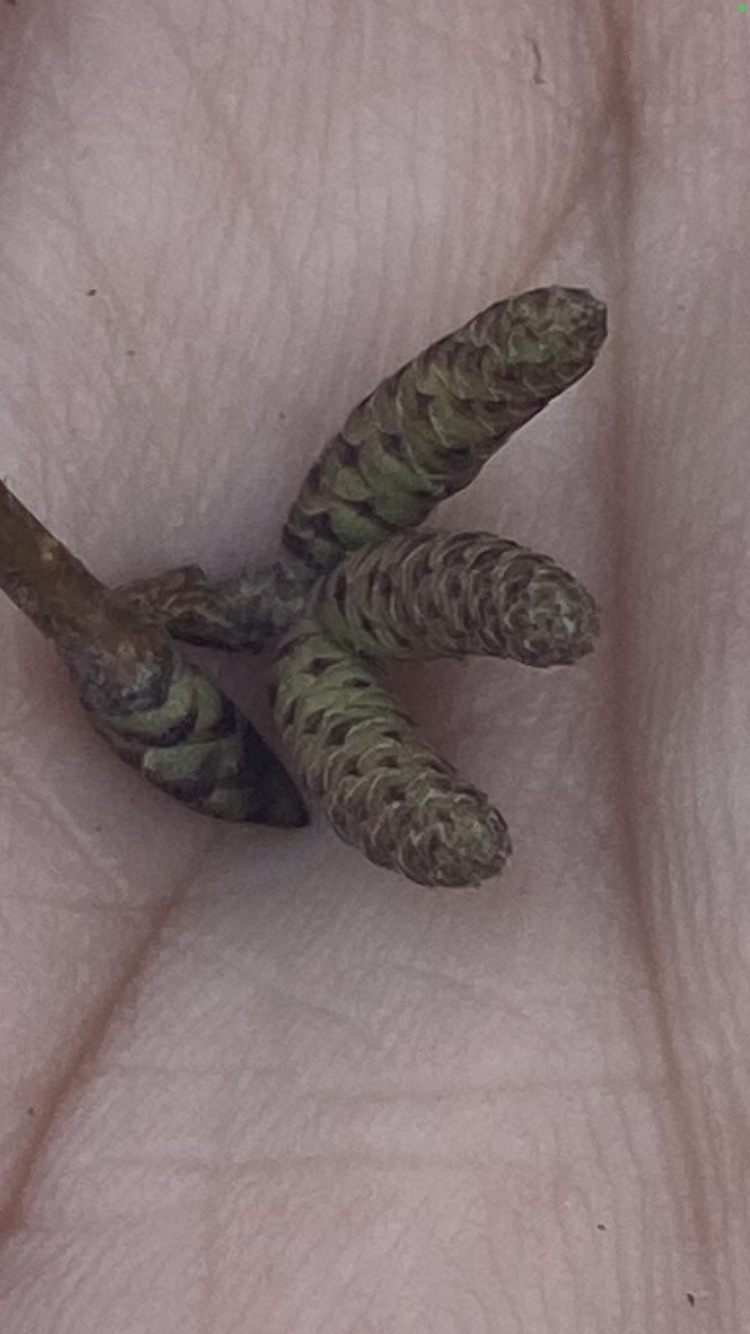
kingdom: Plantae
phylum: Tracheophyta
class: Magnoliopsida
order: Fagales
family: Betulaceae
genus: Ostrya
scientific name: Ostrya virginiana
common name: Ironwood
